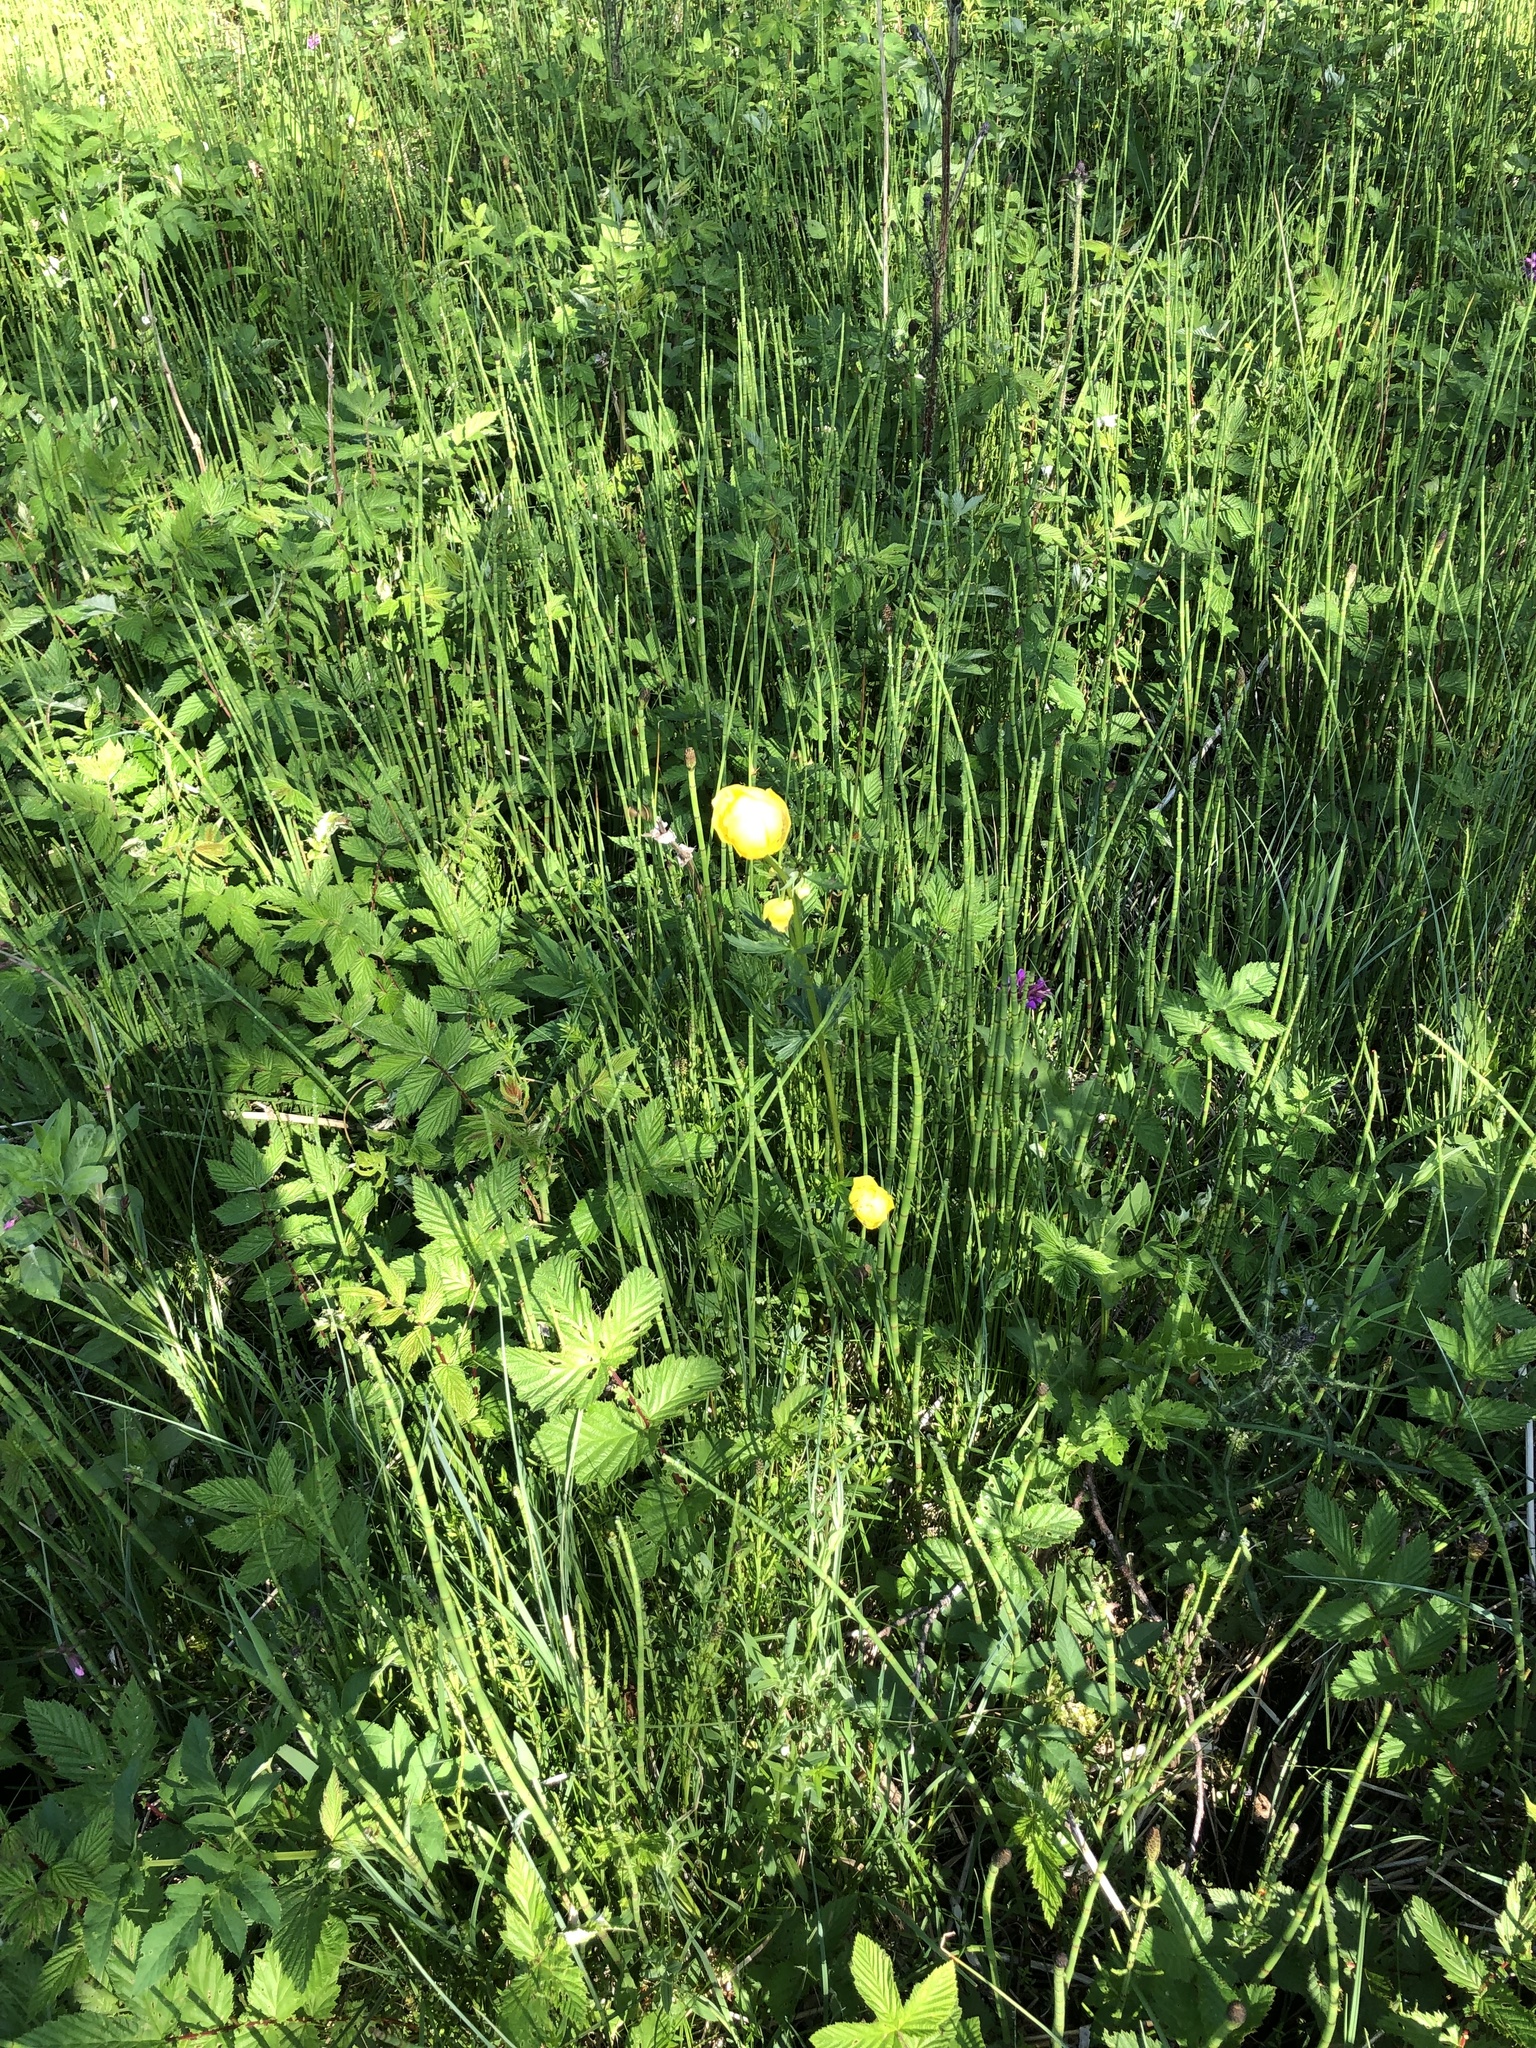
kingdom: Plantae
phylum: Tracheophyta
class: Magnoliopsida
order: Ranunculales
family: Ranunculaceae
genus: Trollius
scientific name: Trollius europaeus
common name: European globeflower
